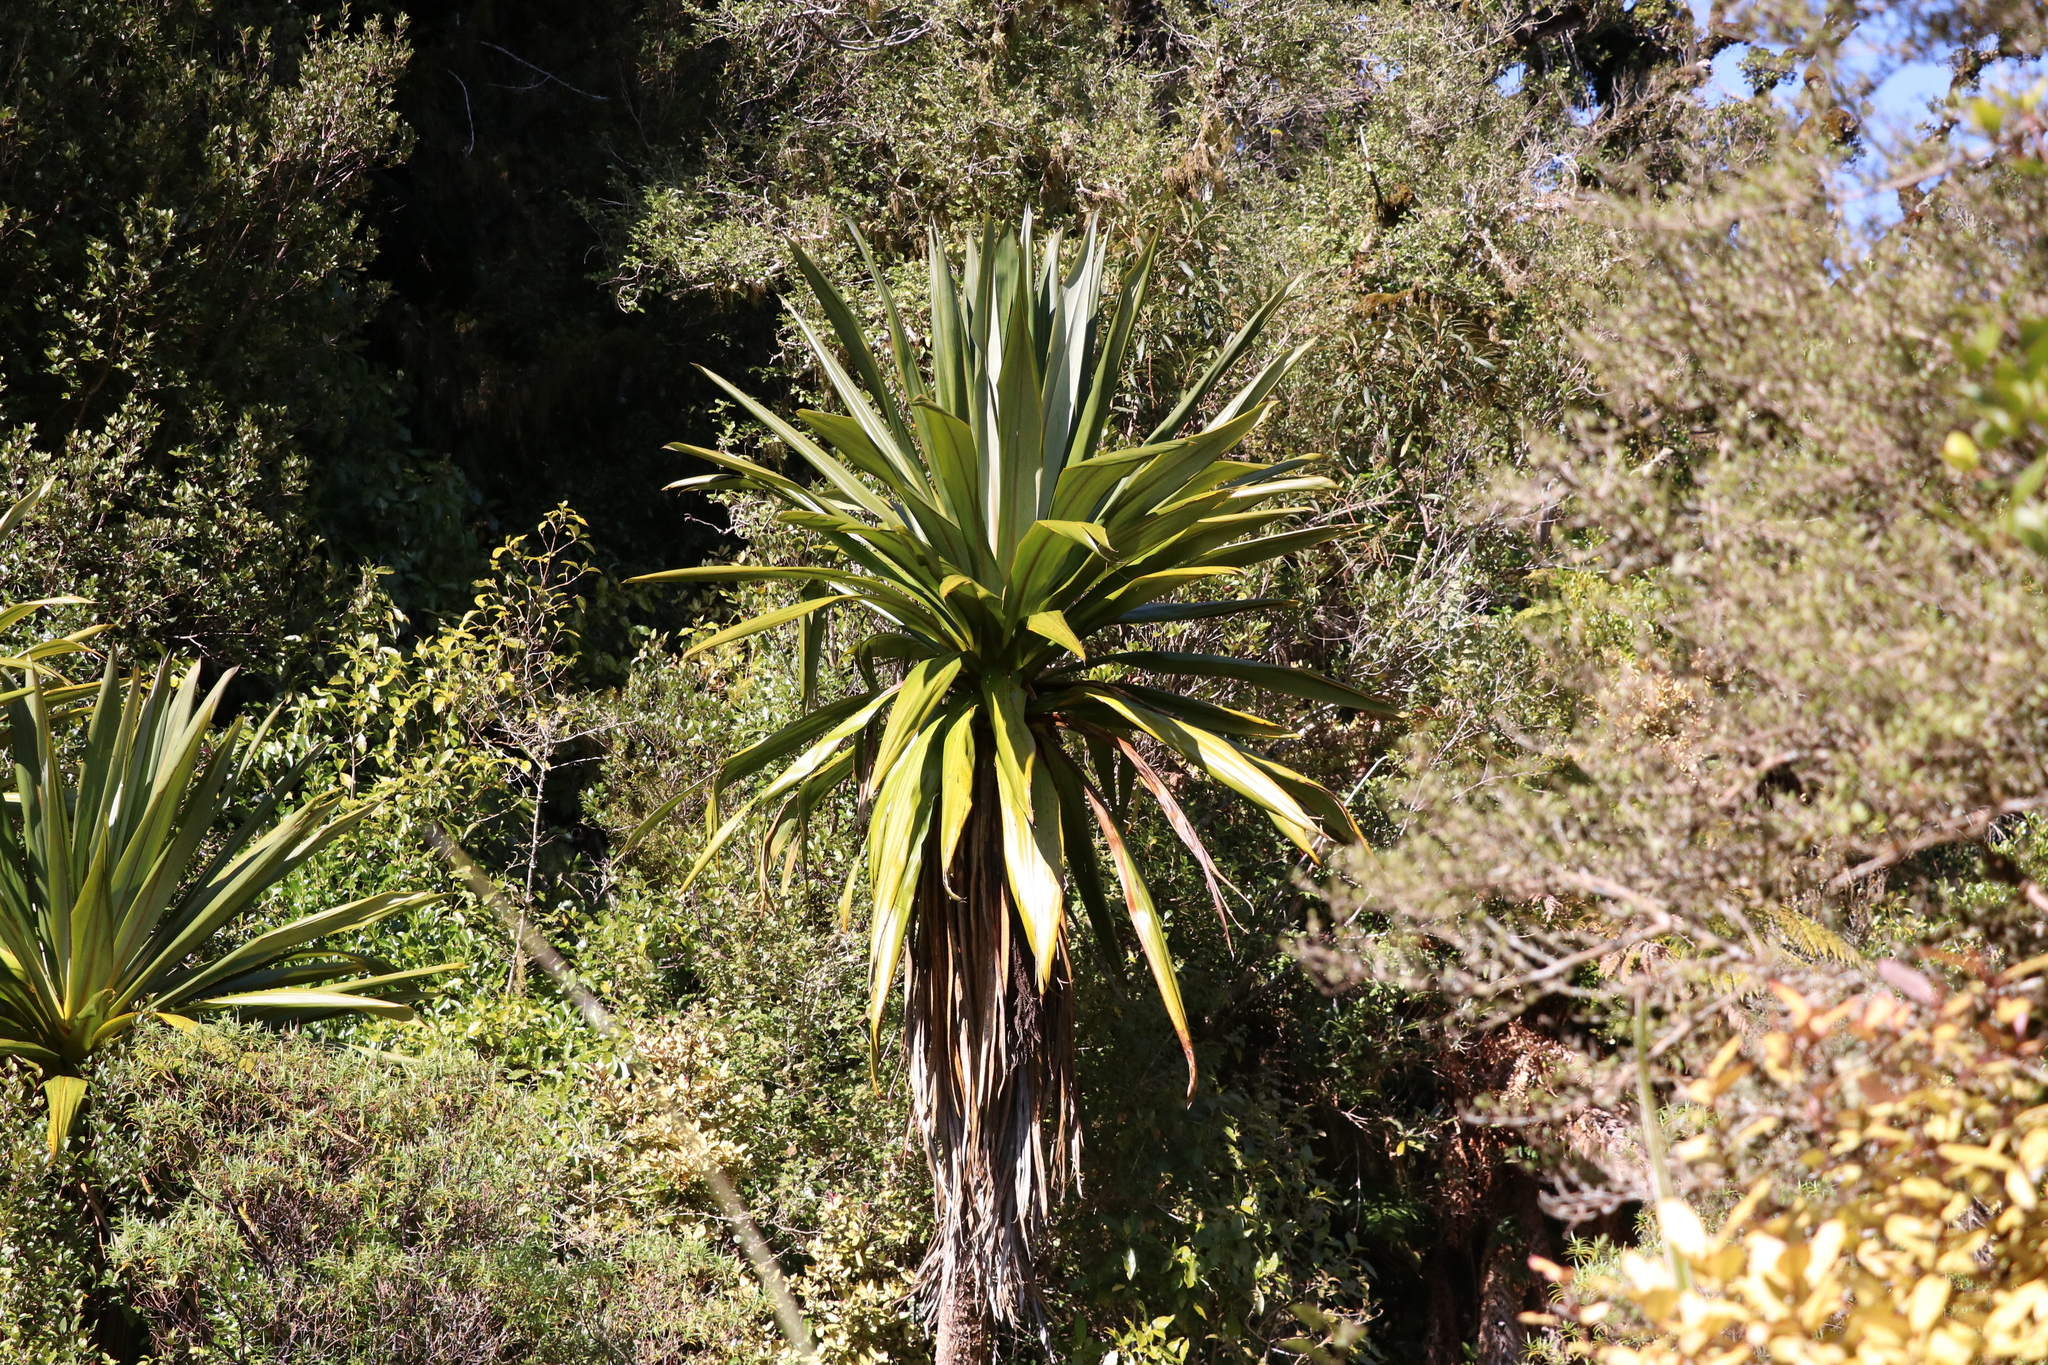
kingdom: Plantae
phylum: Tracheophyta
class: Liliopsida
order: Asparagales
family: Asparagaceae
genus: Cordyline
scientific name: Cordyline indivisa
